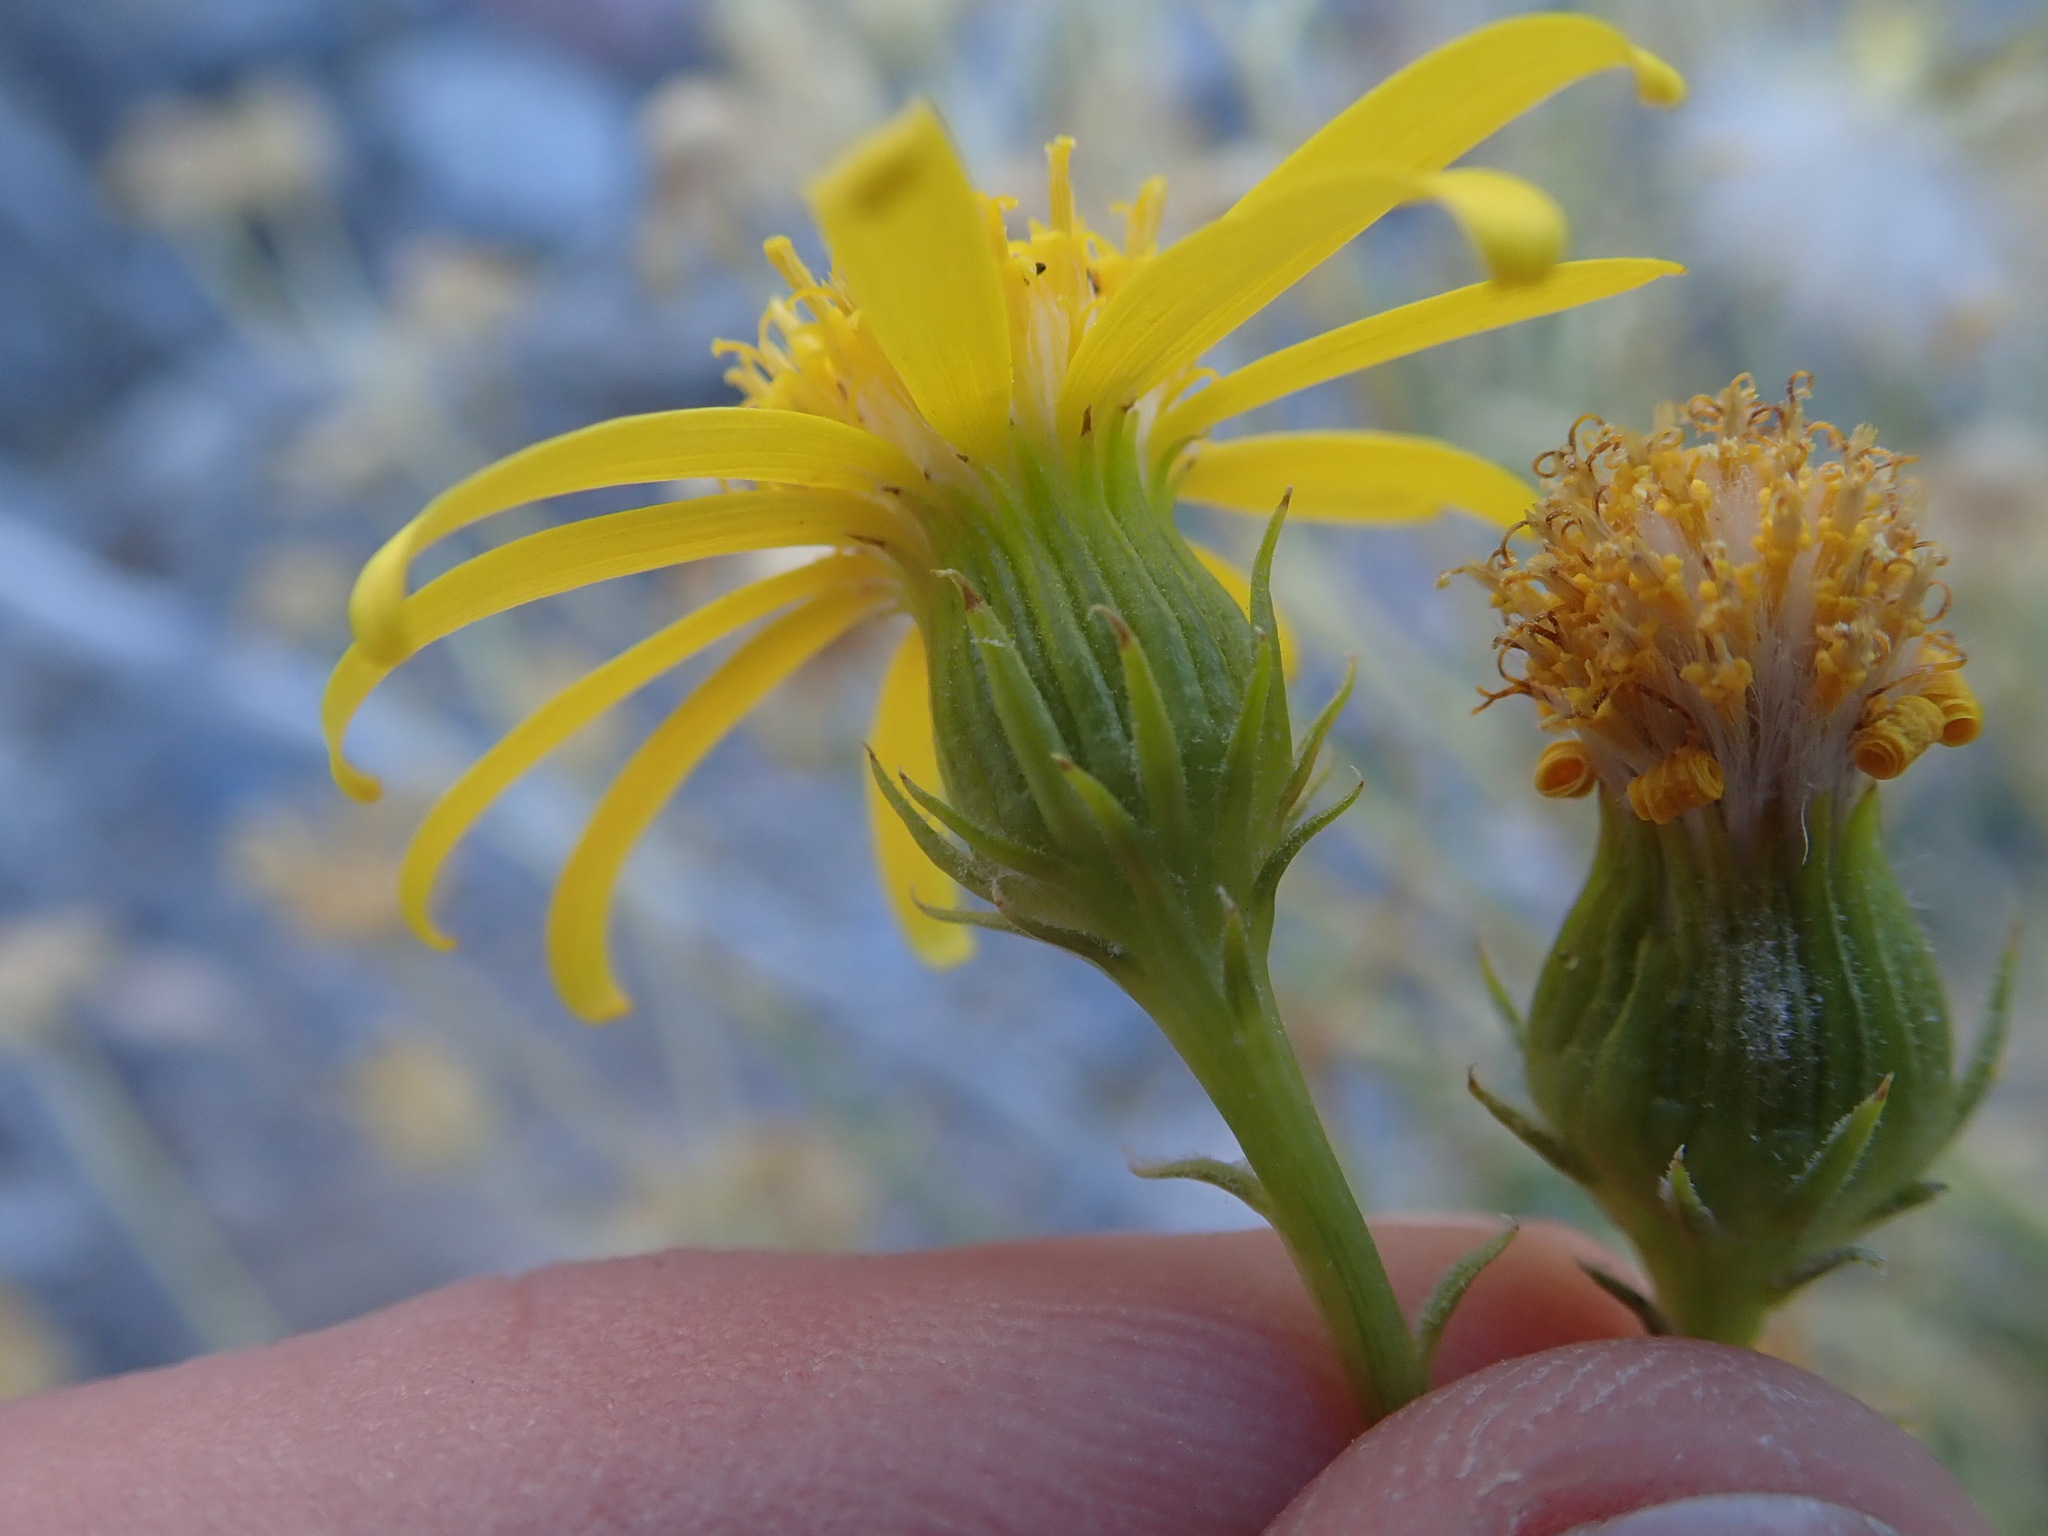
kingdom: Plantae
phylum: Tracheophyta
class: Magnoliopsida
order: Asterales
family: Asteraceae
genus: Senecio
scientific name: Senecio flaccidus
